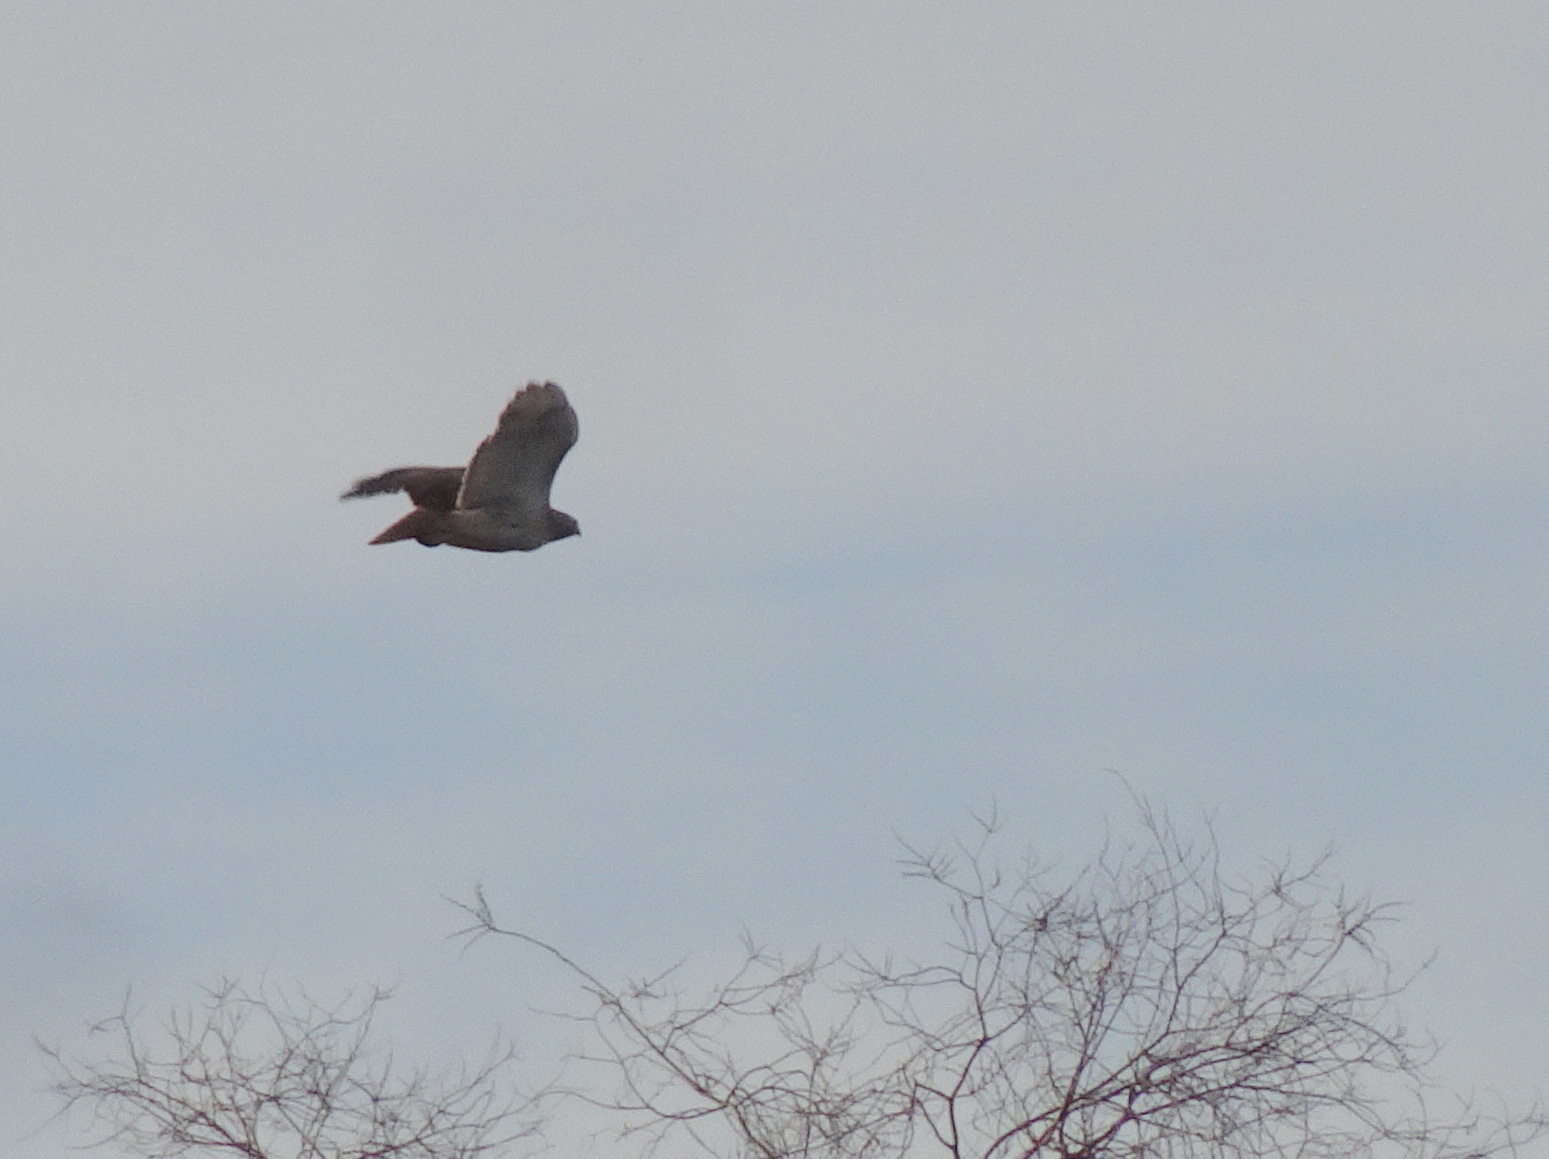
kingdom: Animalia
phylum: Chordata
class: Aves
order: Accipitriformes
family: Accipitridae
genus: Buteo
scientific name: Buteo jamaicensis
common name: Red-tailed hawk
